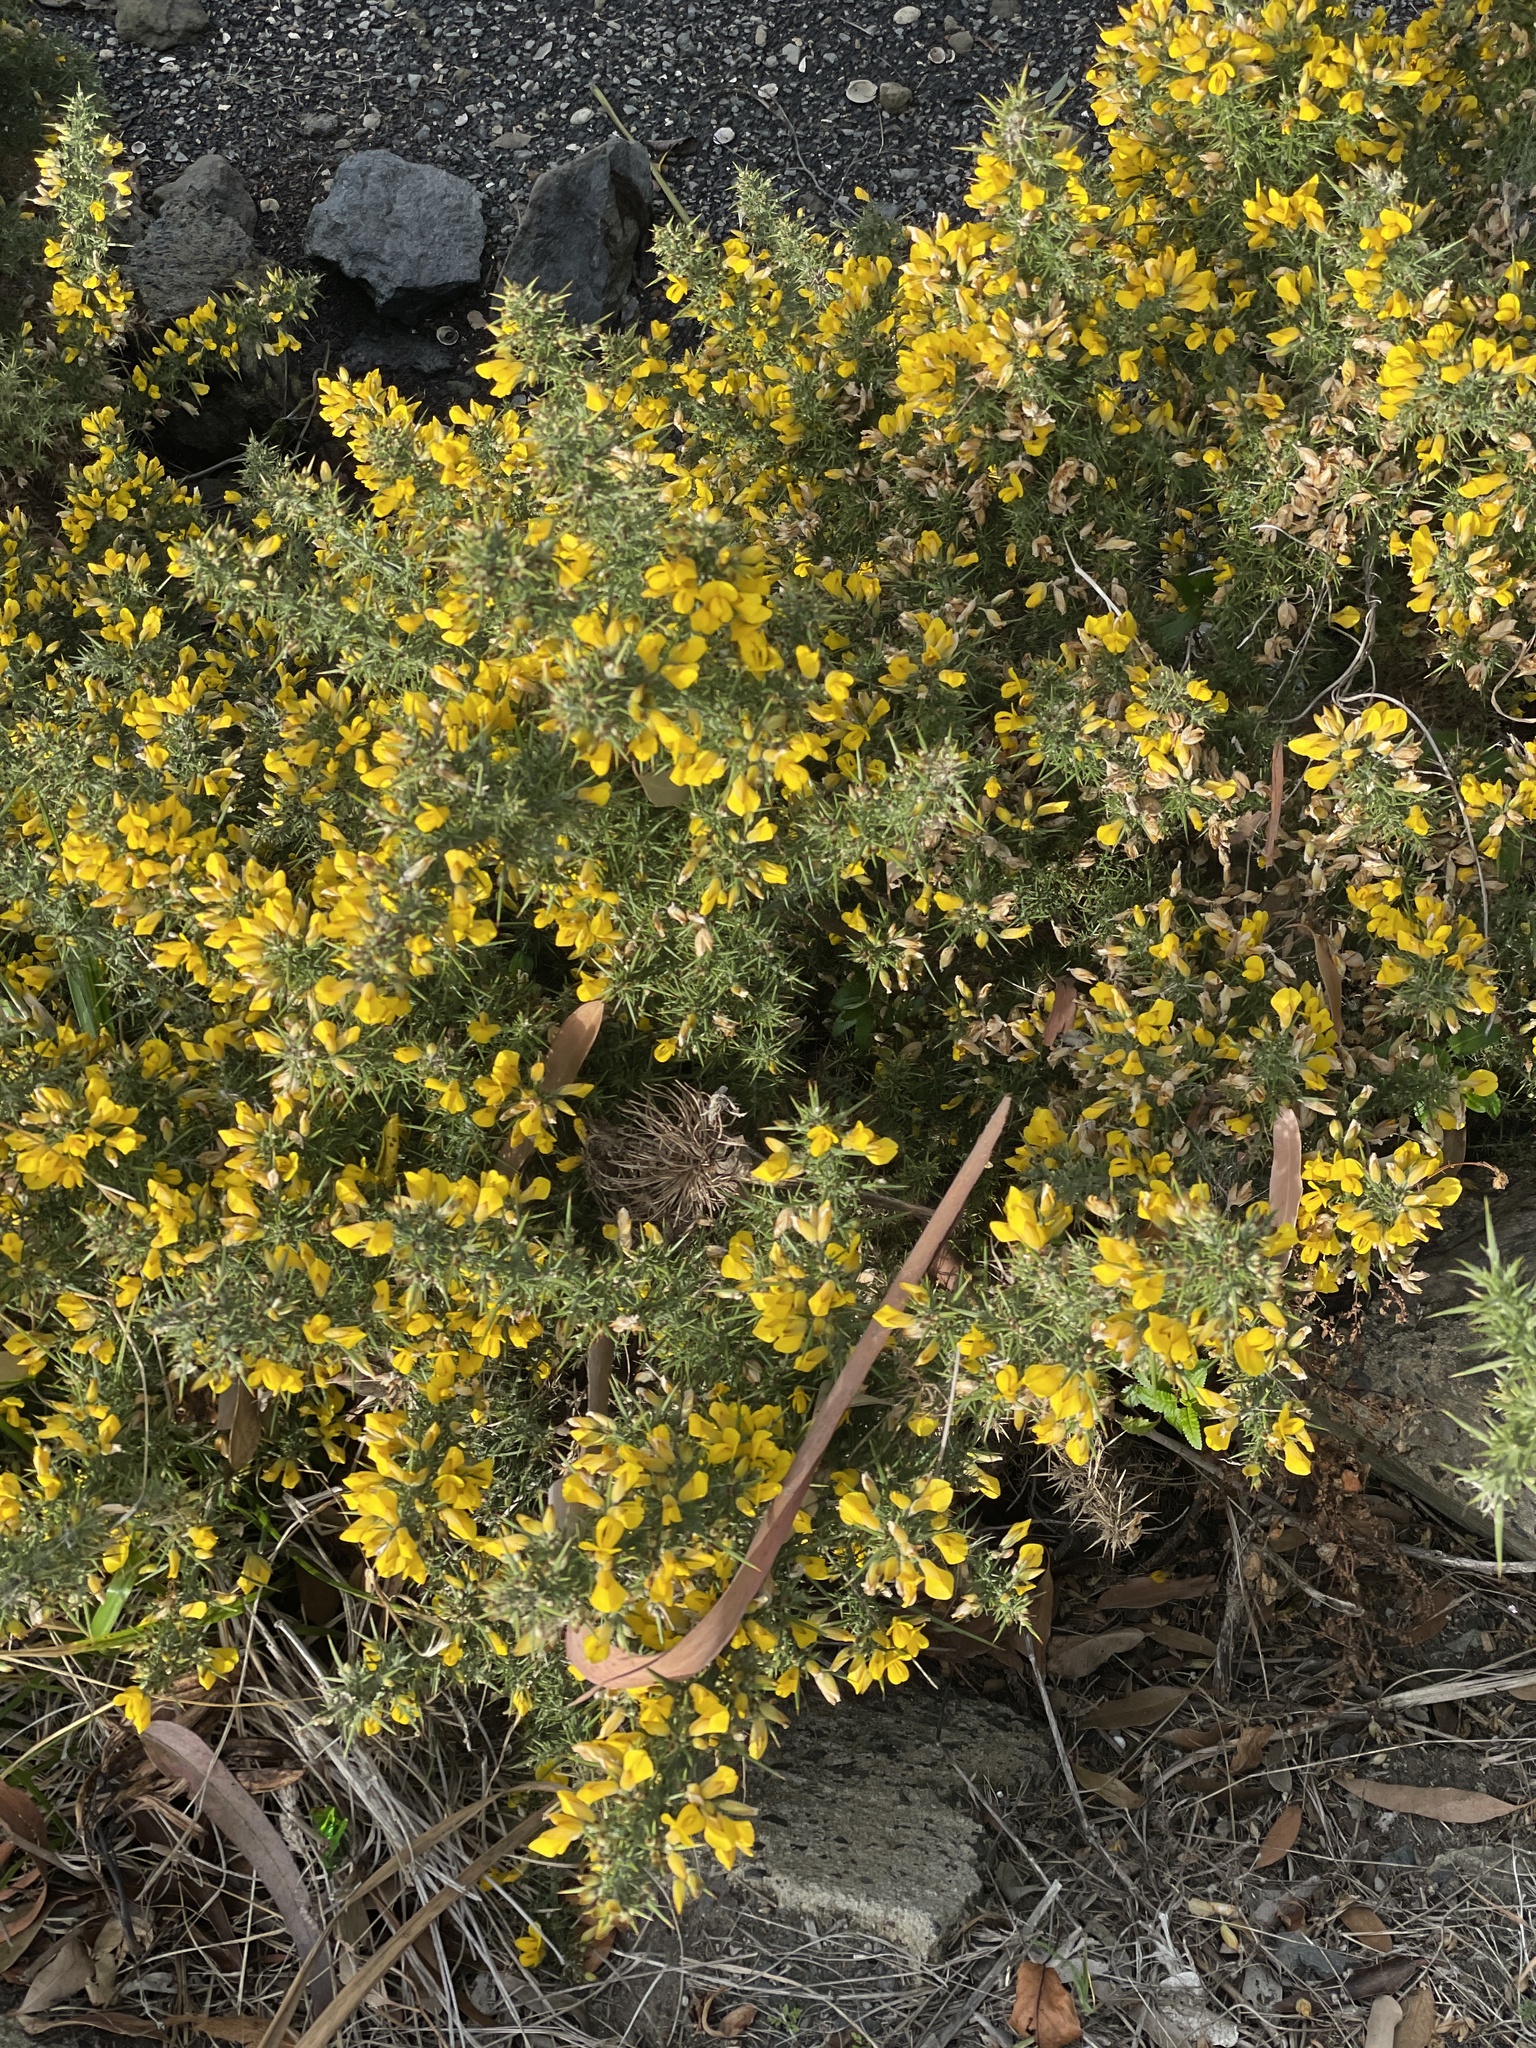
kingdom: Plantae
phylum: Tracheophyta
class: Magnoliopsida
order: Fabales
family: Fabaceae
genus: Ulex
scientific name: Ulex europaeus
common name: Common gorse
